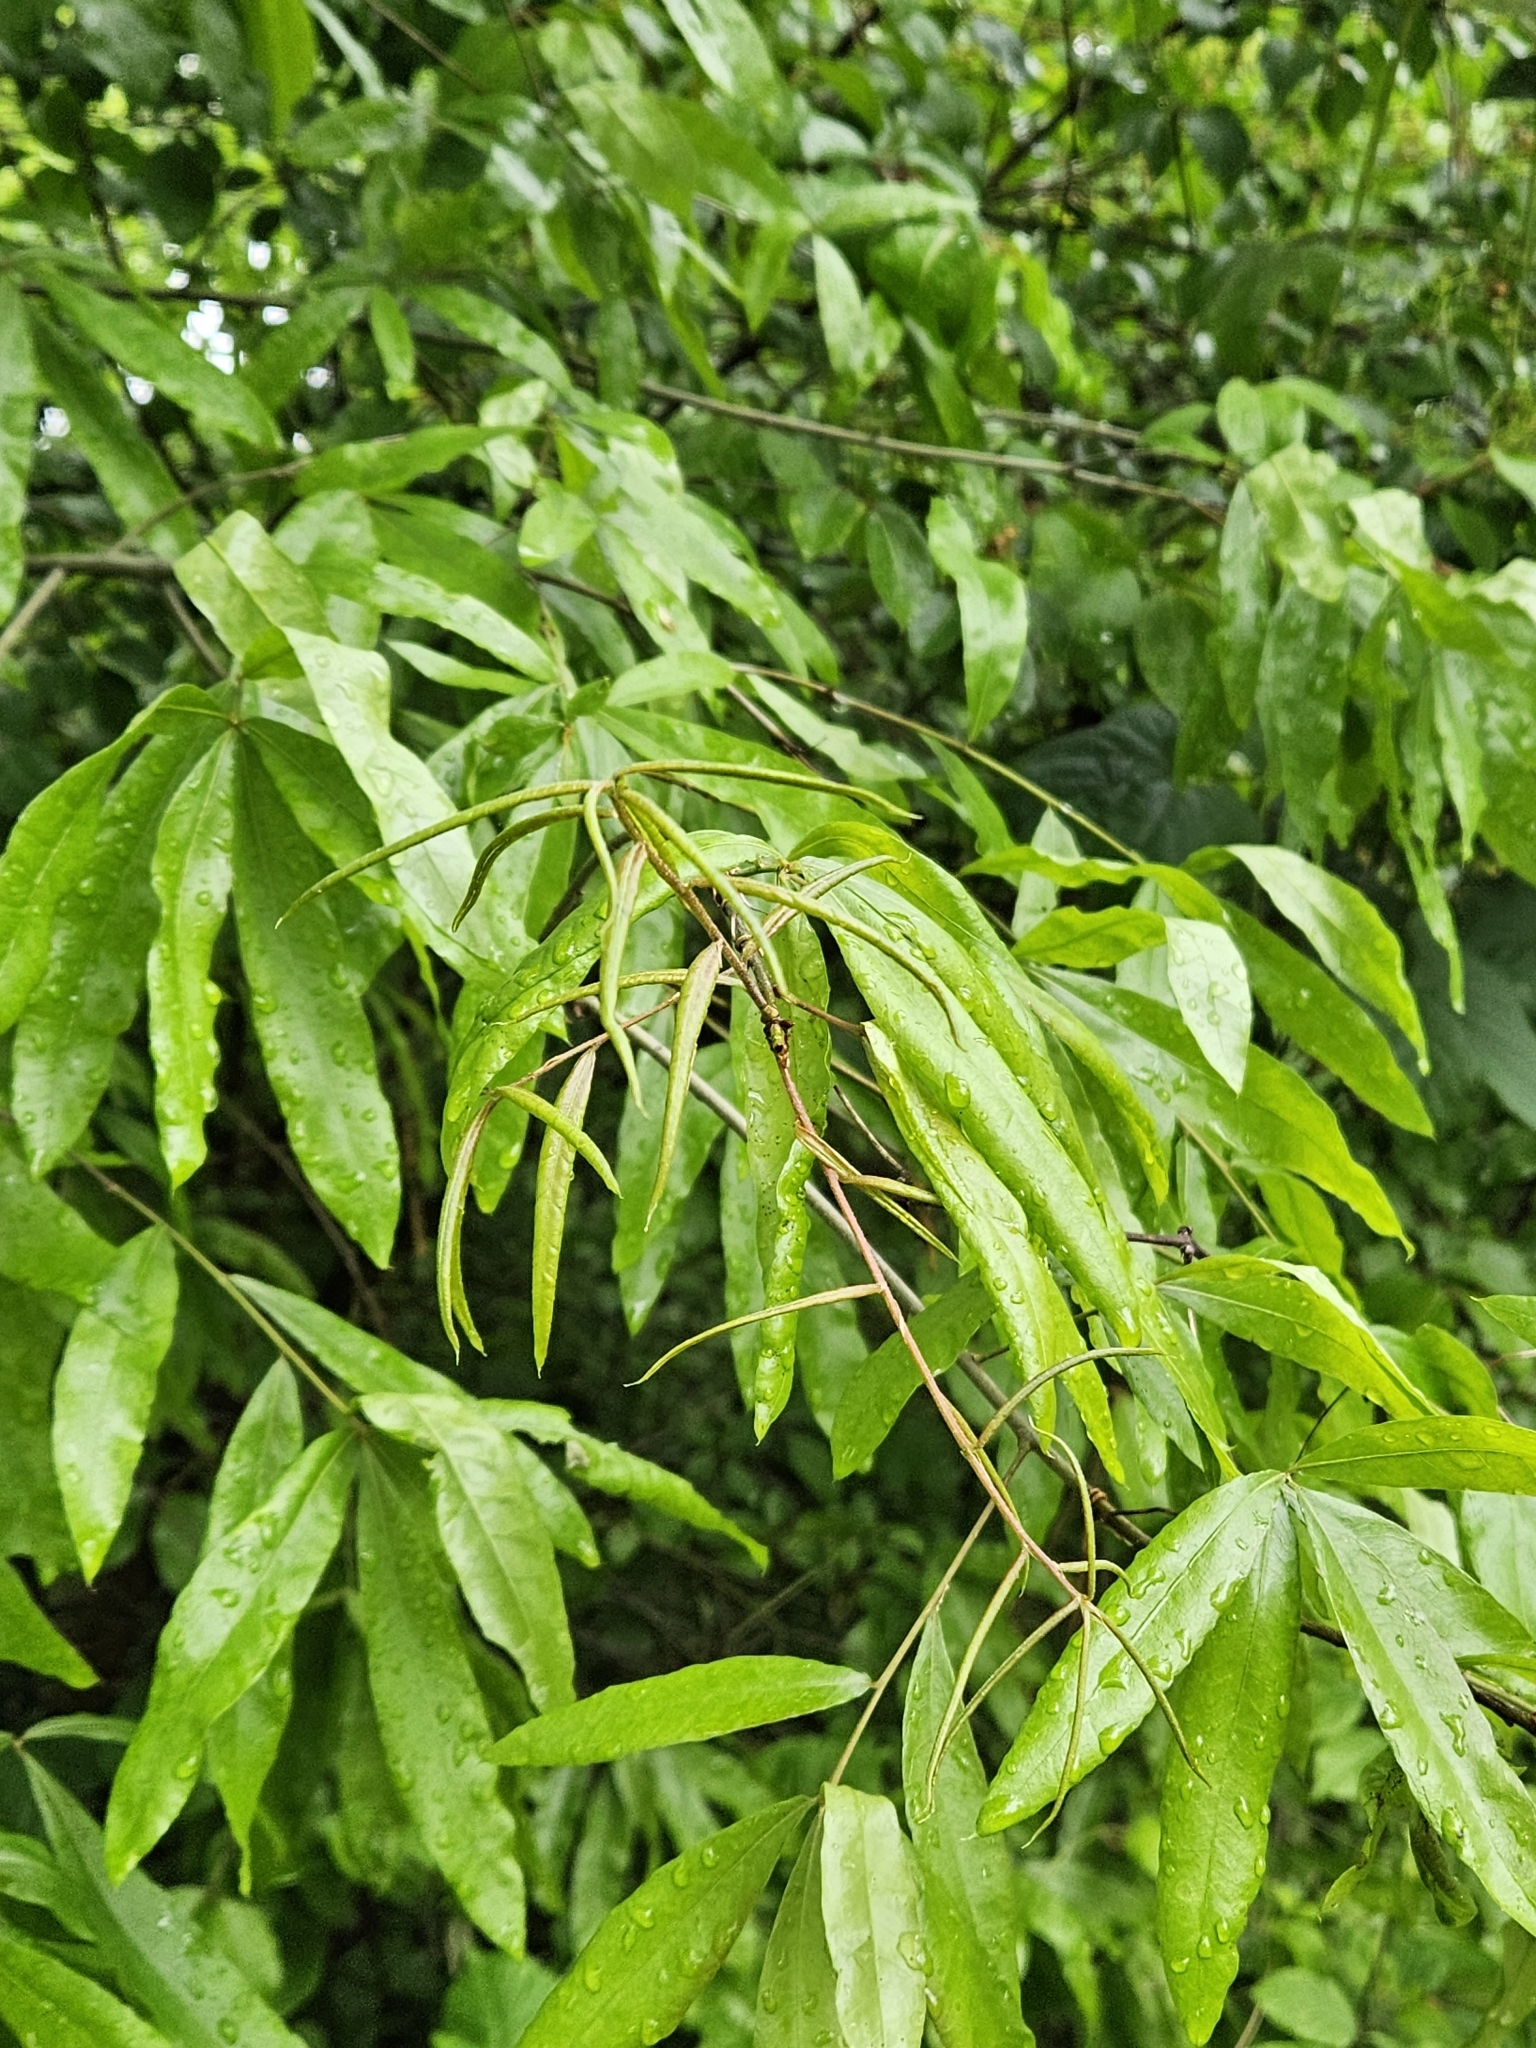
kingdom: Plantae
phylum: Tracheophyta
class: Magnoliopsida
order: Fagales
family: Fagaceae
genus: Quercus
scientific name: Quercus phellos
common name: Willow oak
